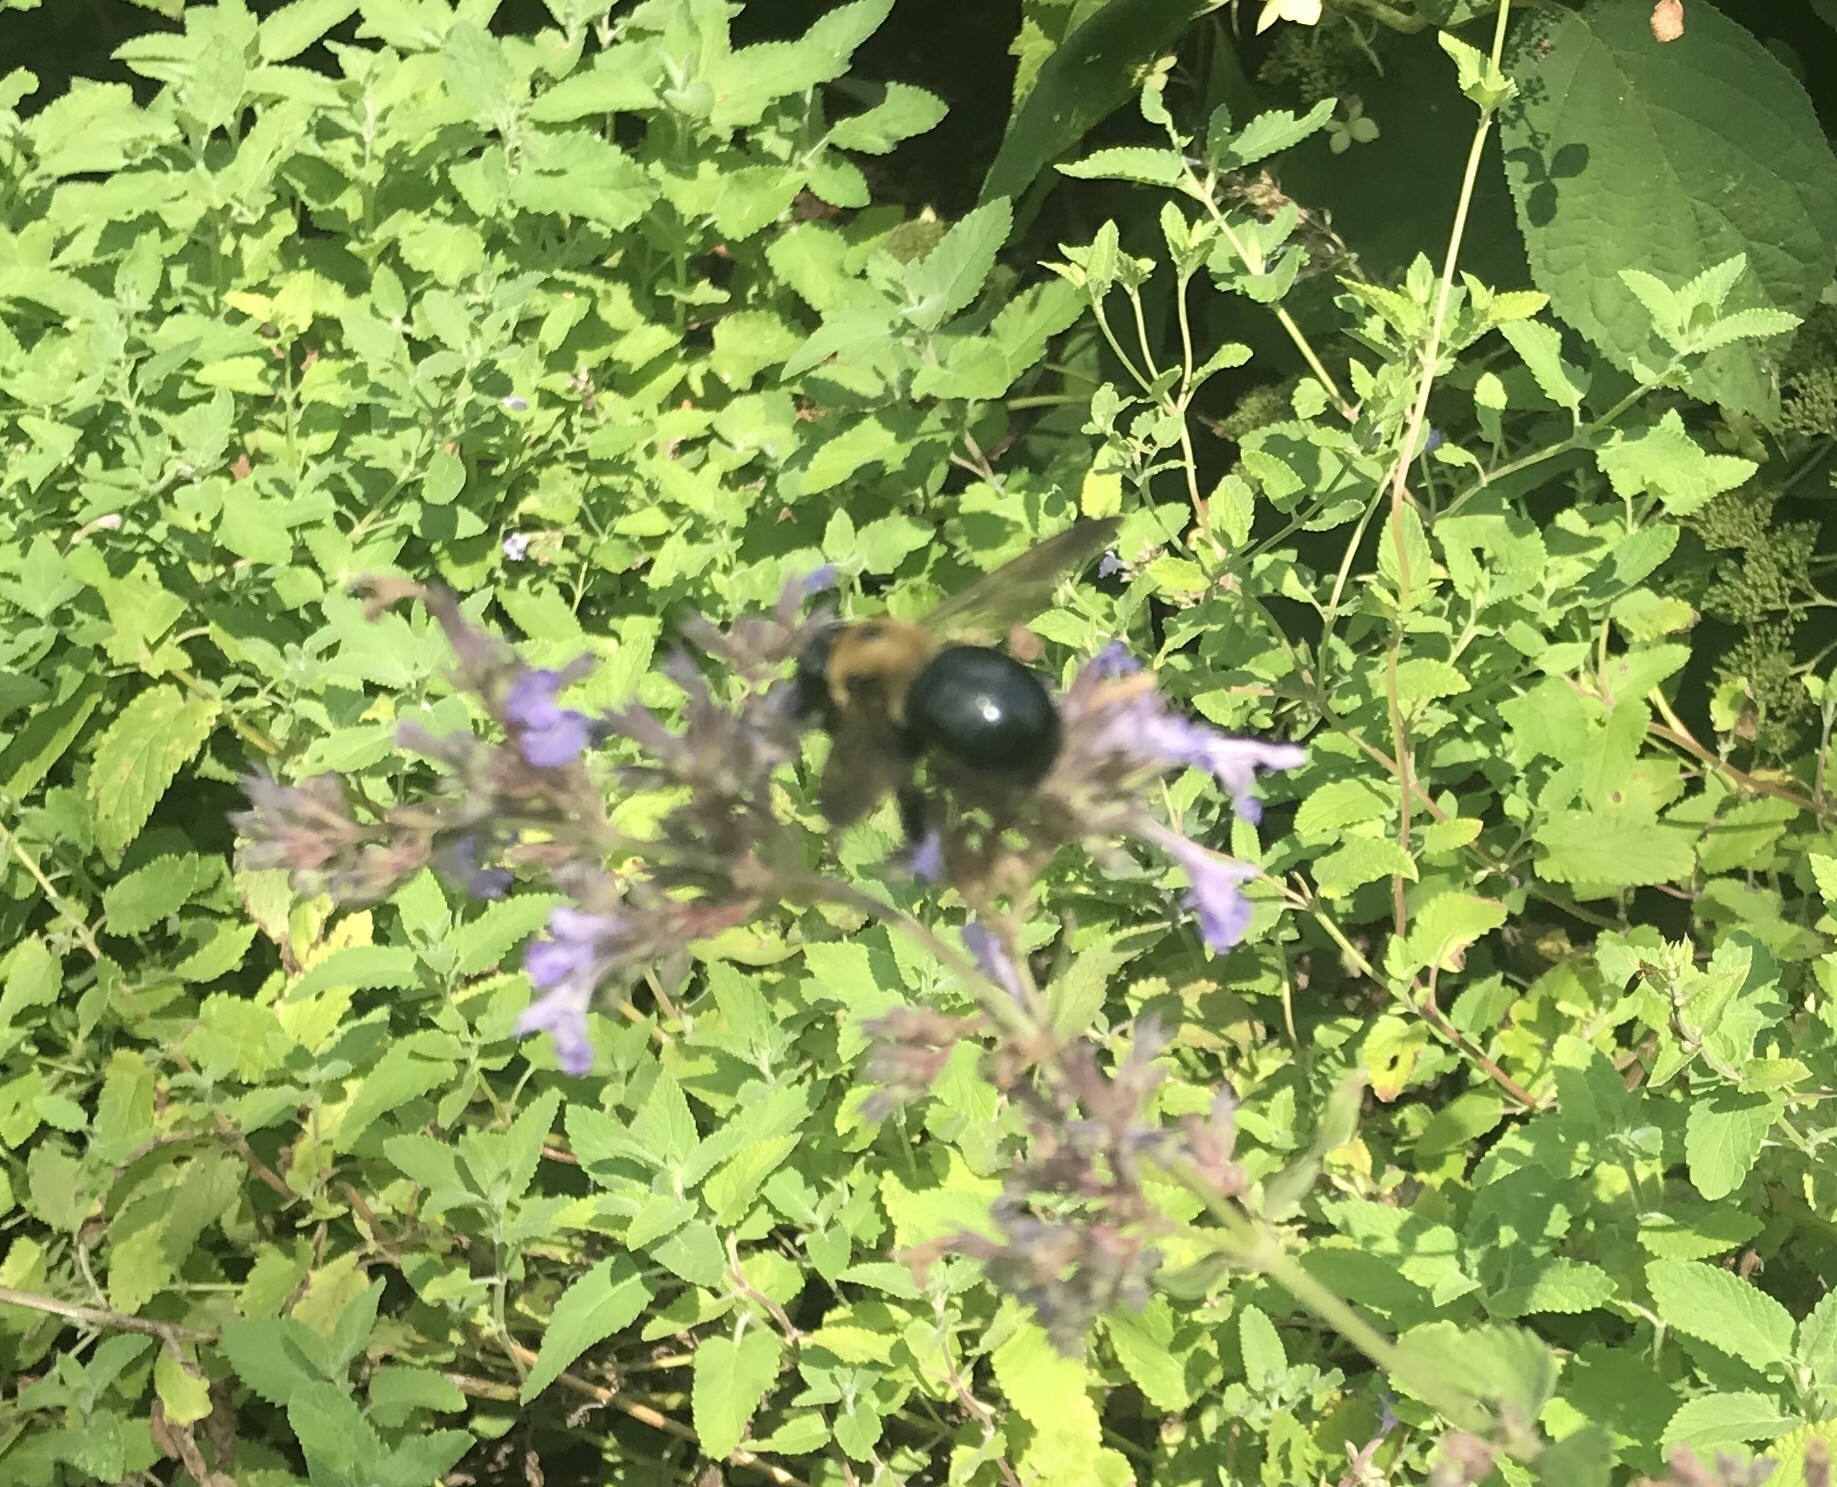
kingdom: Animalia
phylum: Arthropoda
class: Insecta
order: Hymenoptera
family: Apidae
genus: Xylocopa
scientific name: Xylocopa virginica
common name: Carpenter bee
